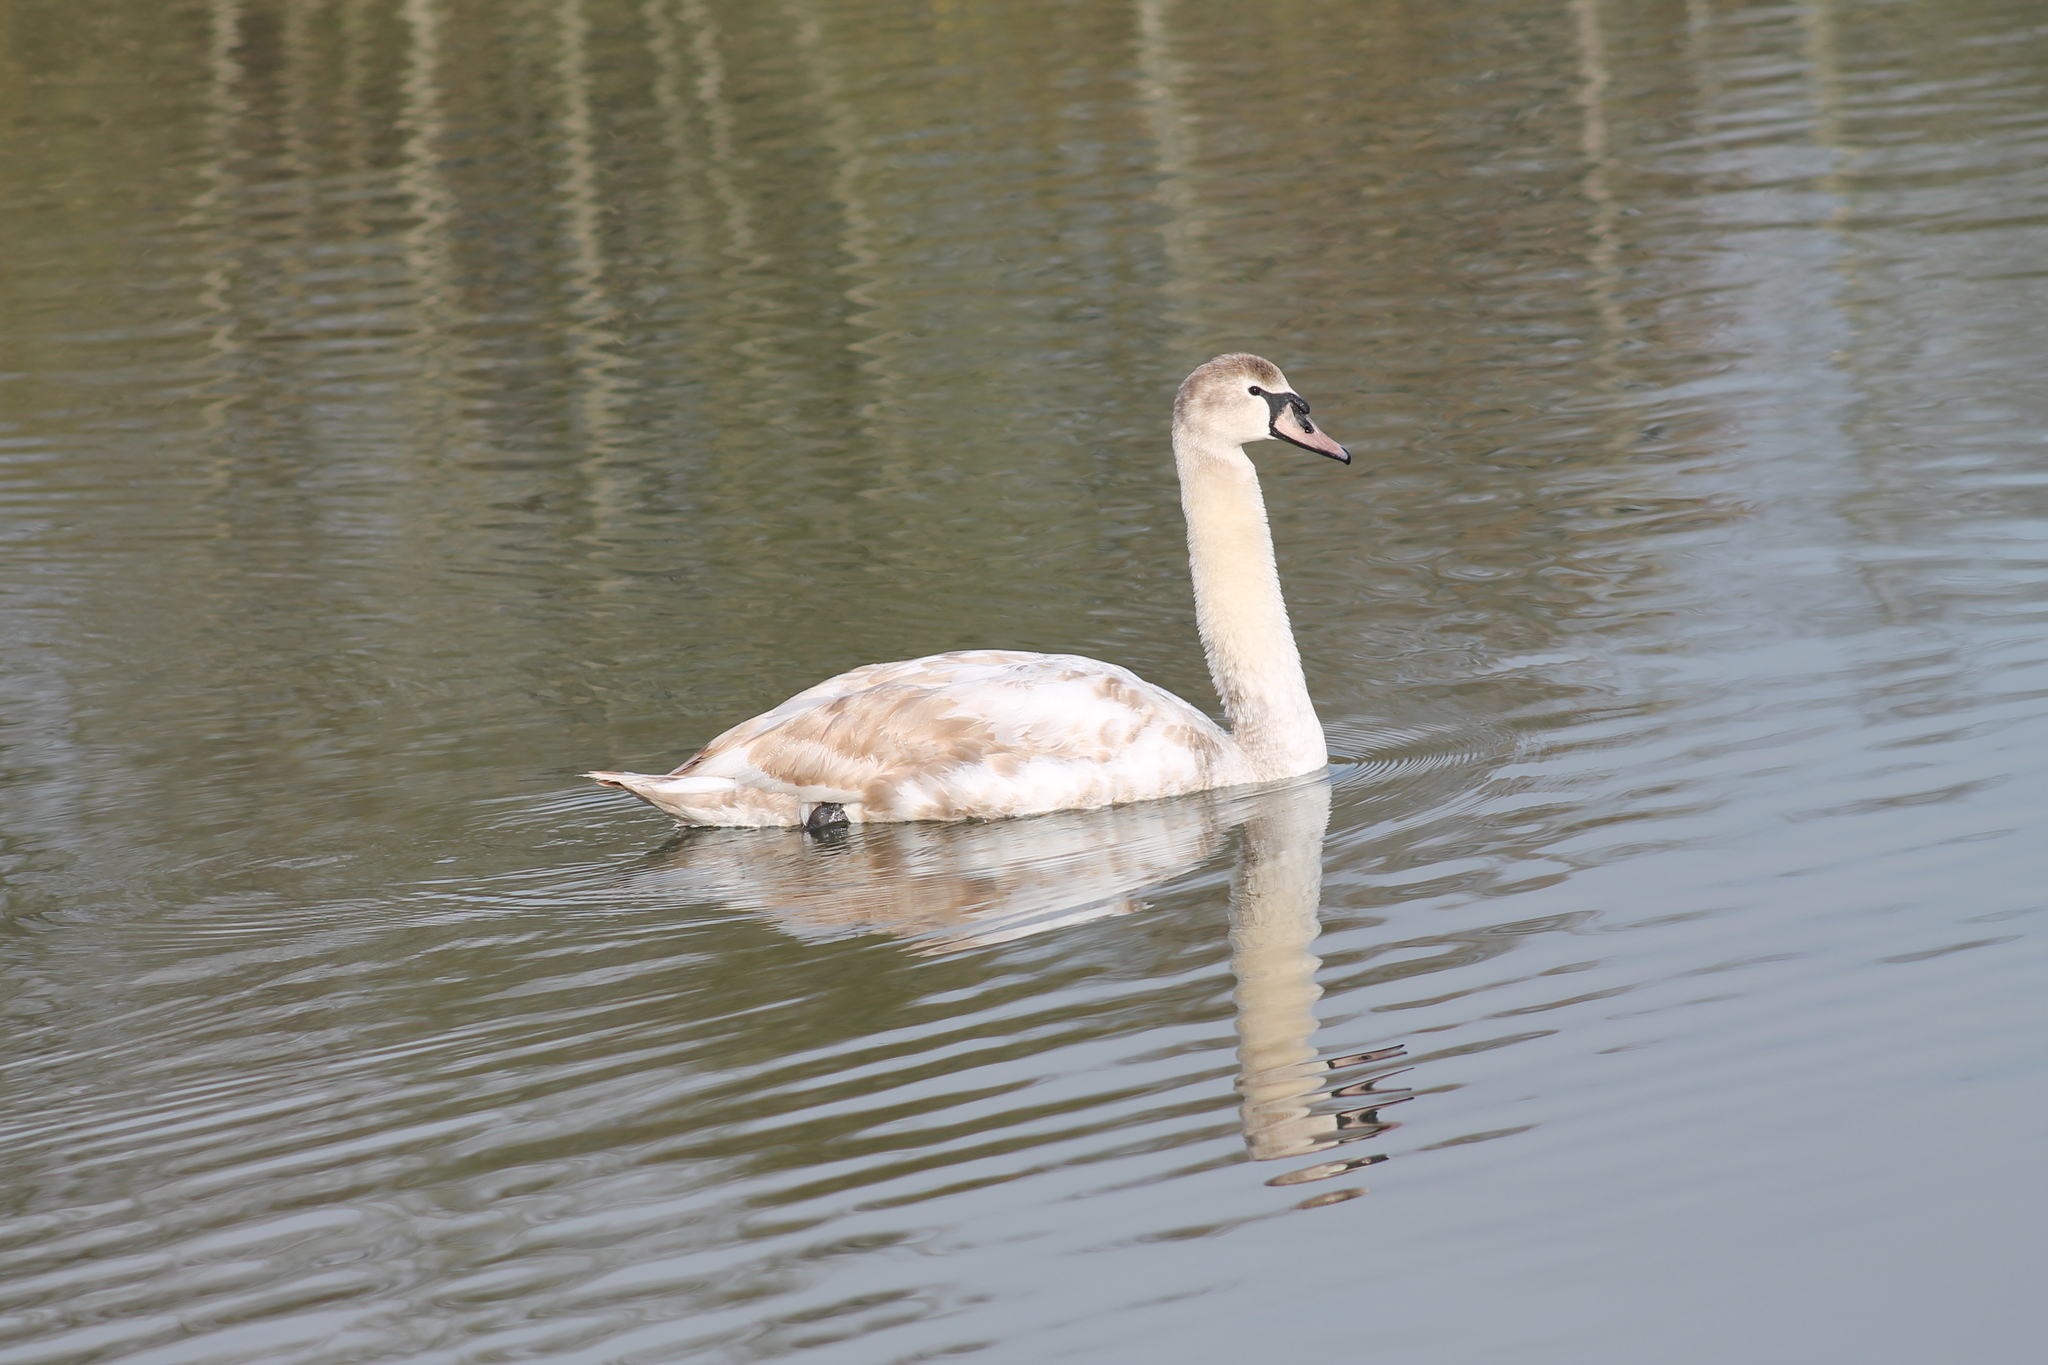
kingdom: Animalia
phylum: Chordata
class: Aves
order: Anseriformes
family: Anatidae
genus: Cygnus
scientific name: Cygnus olor
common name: Mute swan
